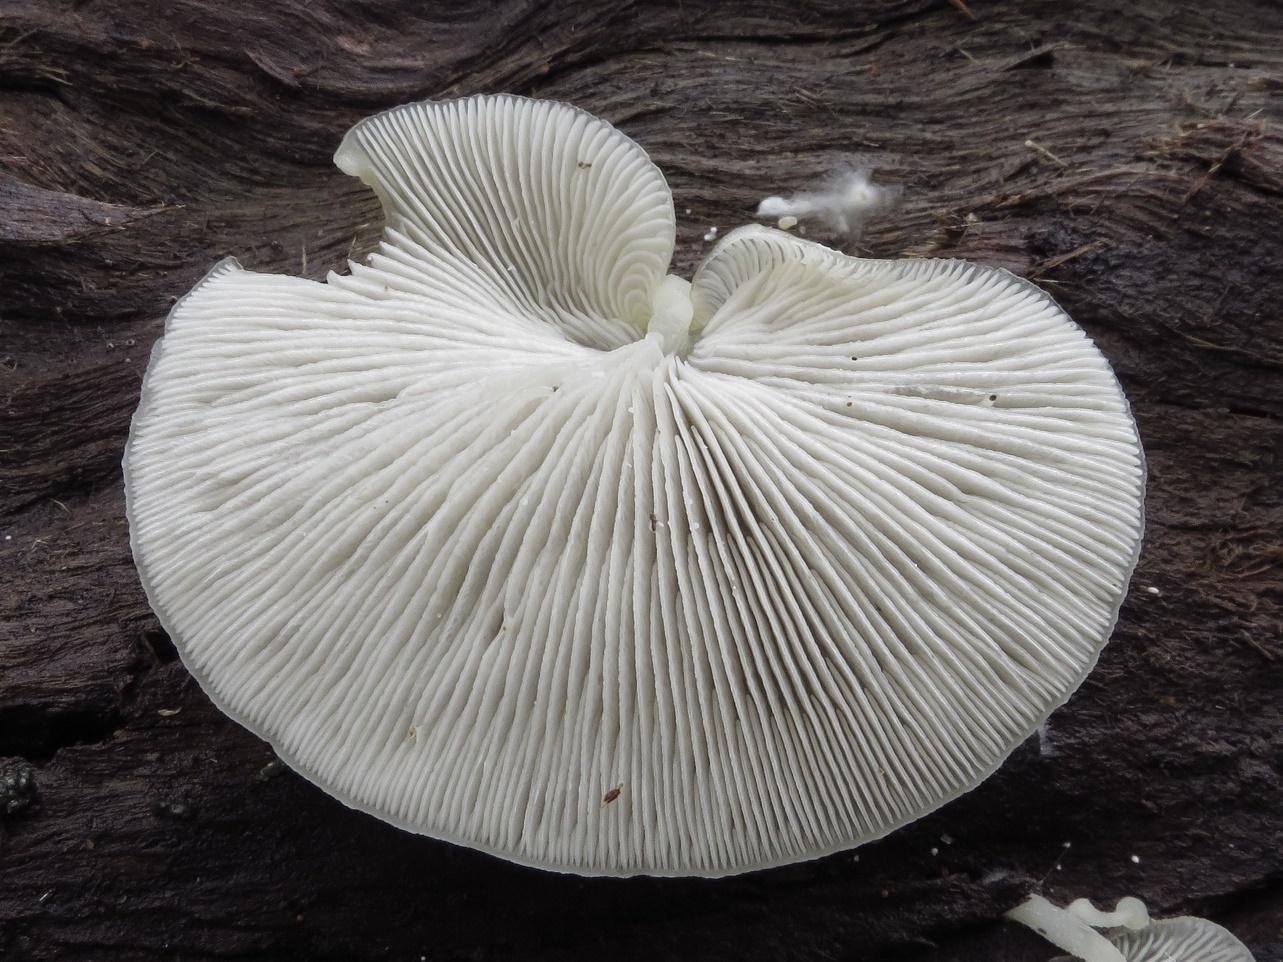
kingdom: Fungi
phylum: Basidiomycota
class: Agaricomycetes
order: Agaricales
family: Tricholomataceae
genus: Conchomyces
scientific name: Conchomyces bursiformis
